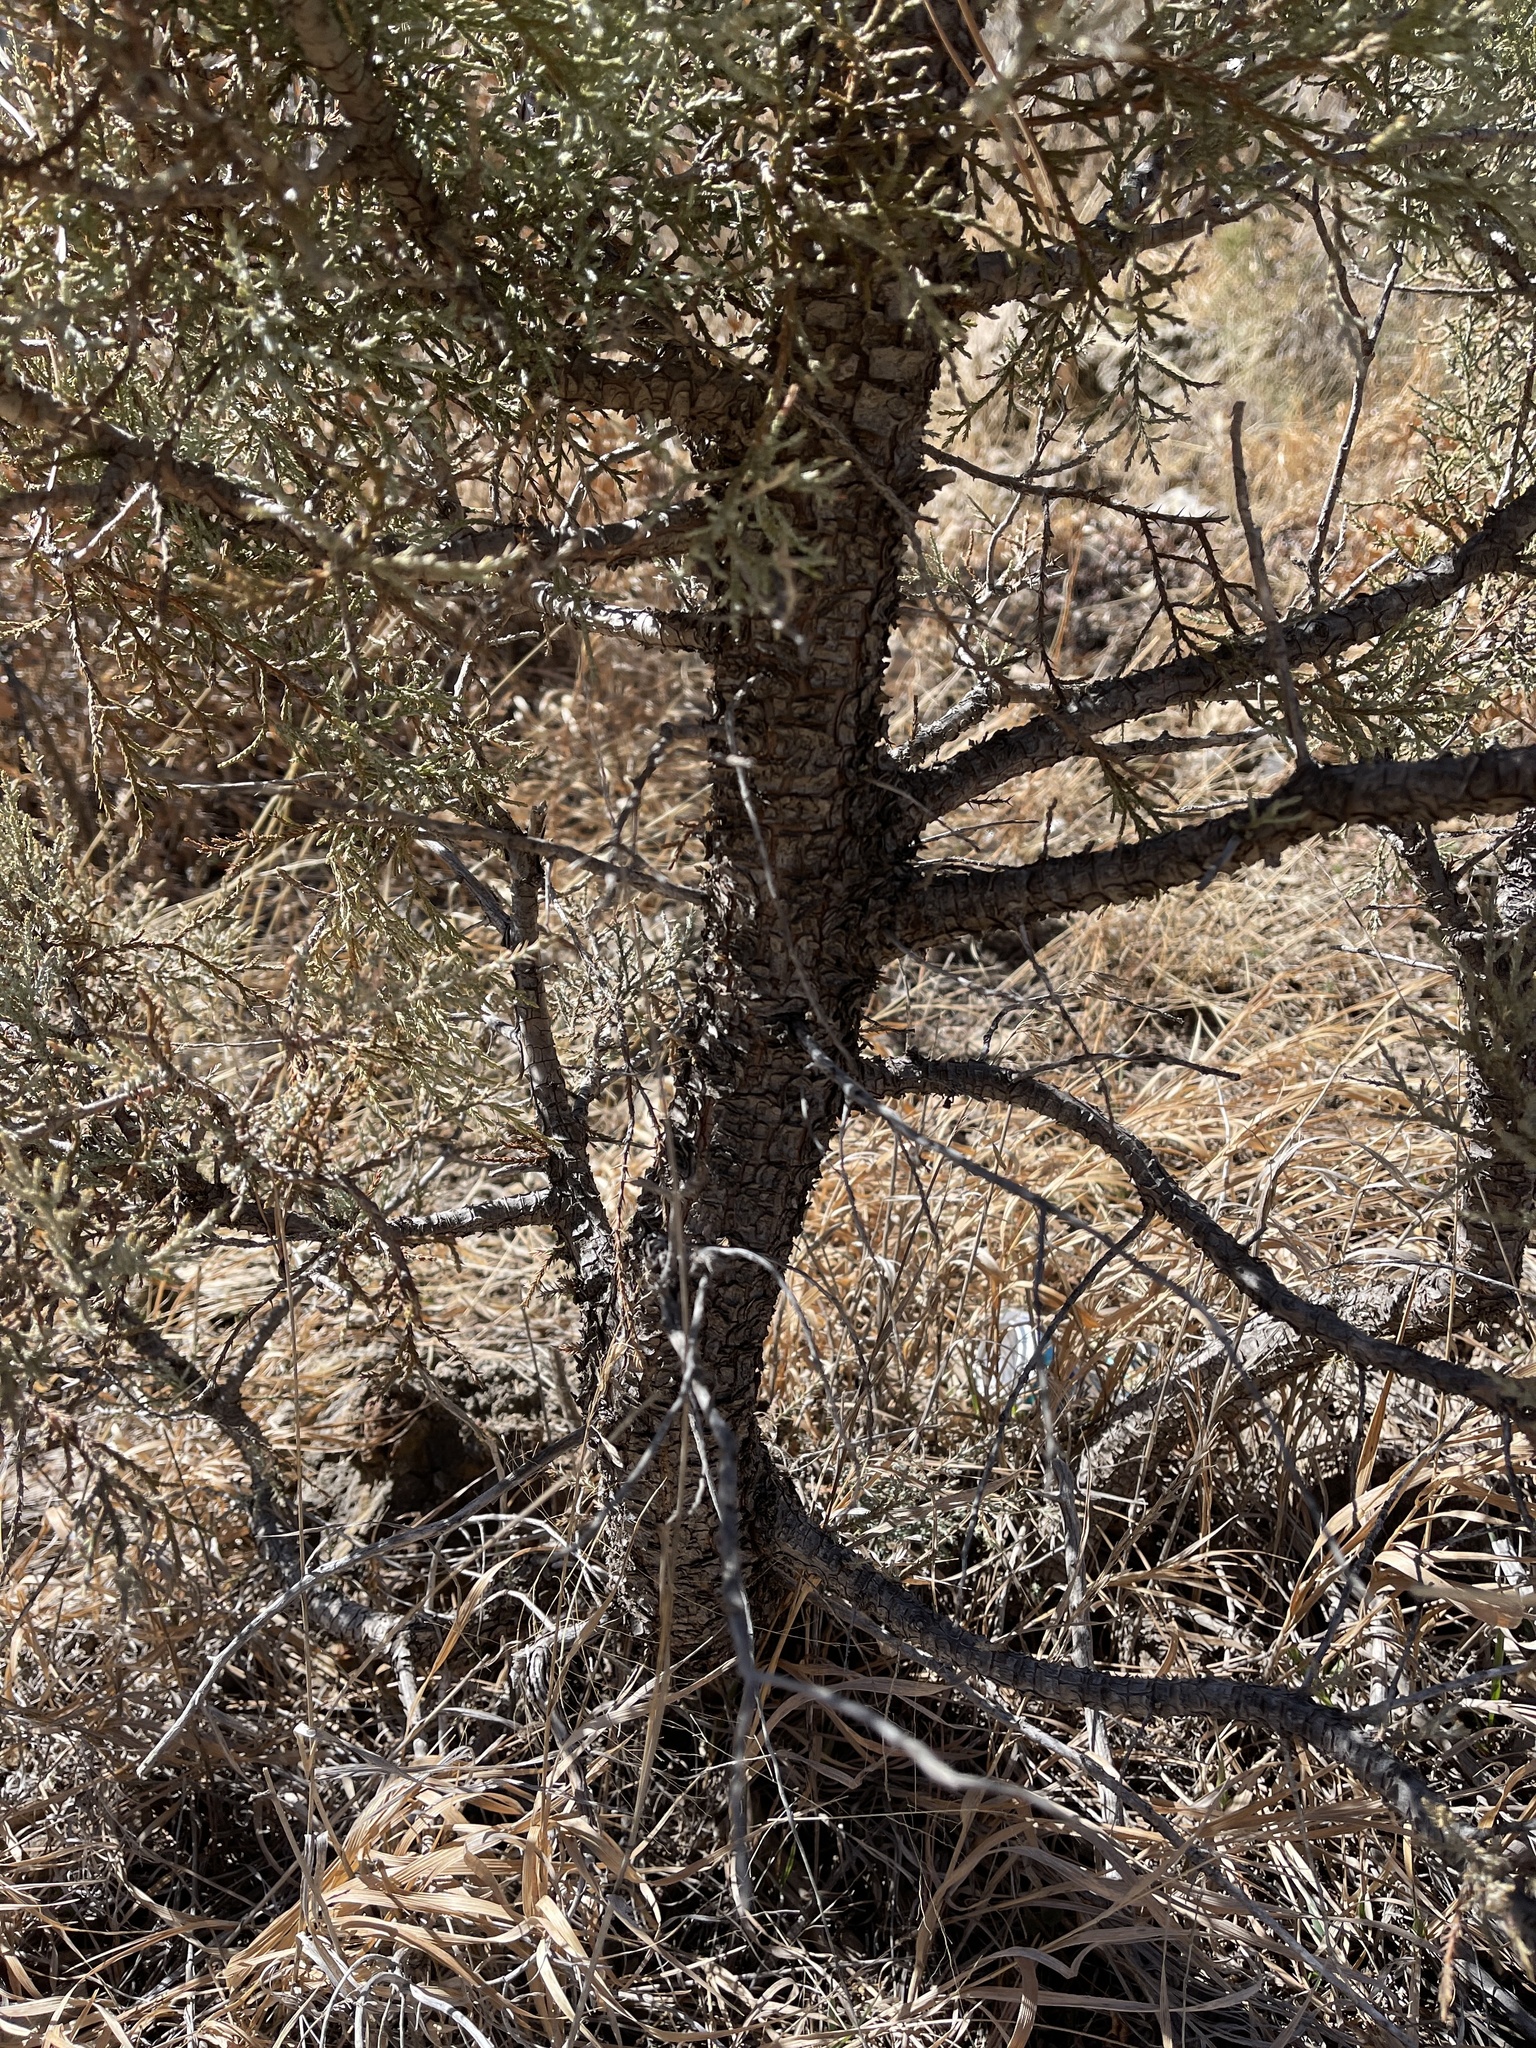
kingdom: Plantae
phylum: Tracheophyta
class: Pinopsida
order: Pinales
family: Cupressaceae
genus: Juniperus
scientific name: Juniperus deppeana
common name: Alligator juniper
